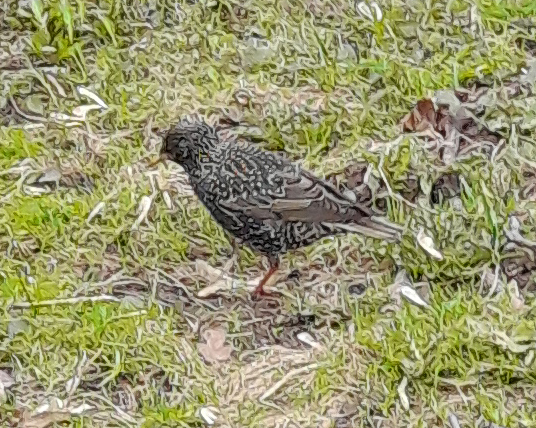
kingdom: Animalia
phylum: Chordata
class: Aves
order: Passeriformes
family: Sturnidae
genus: Sturnus
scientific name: Sturnus vulgaris
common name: Common starling
